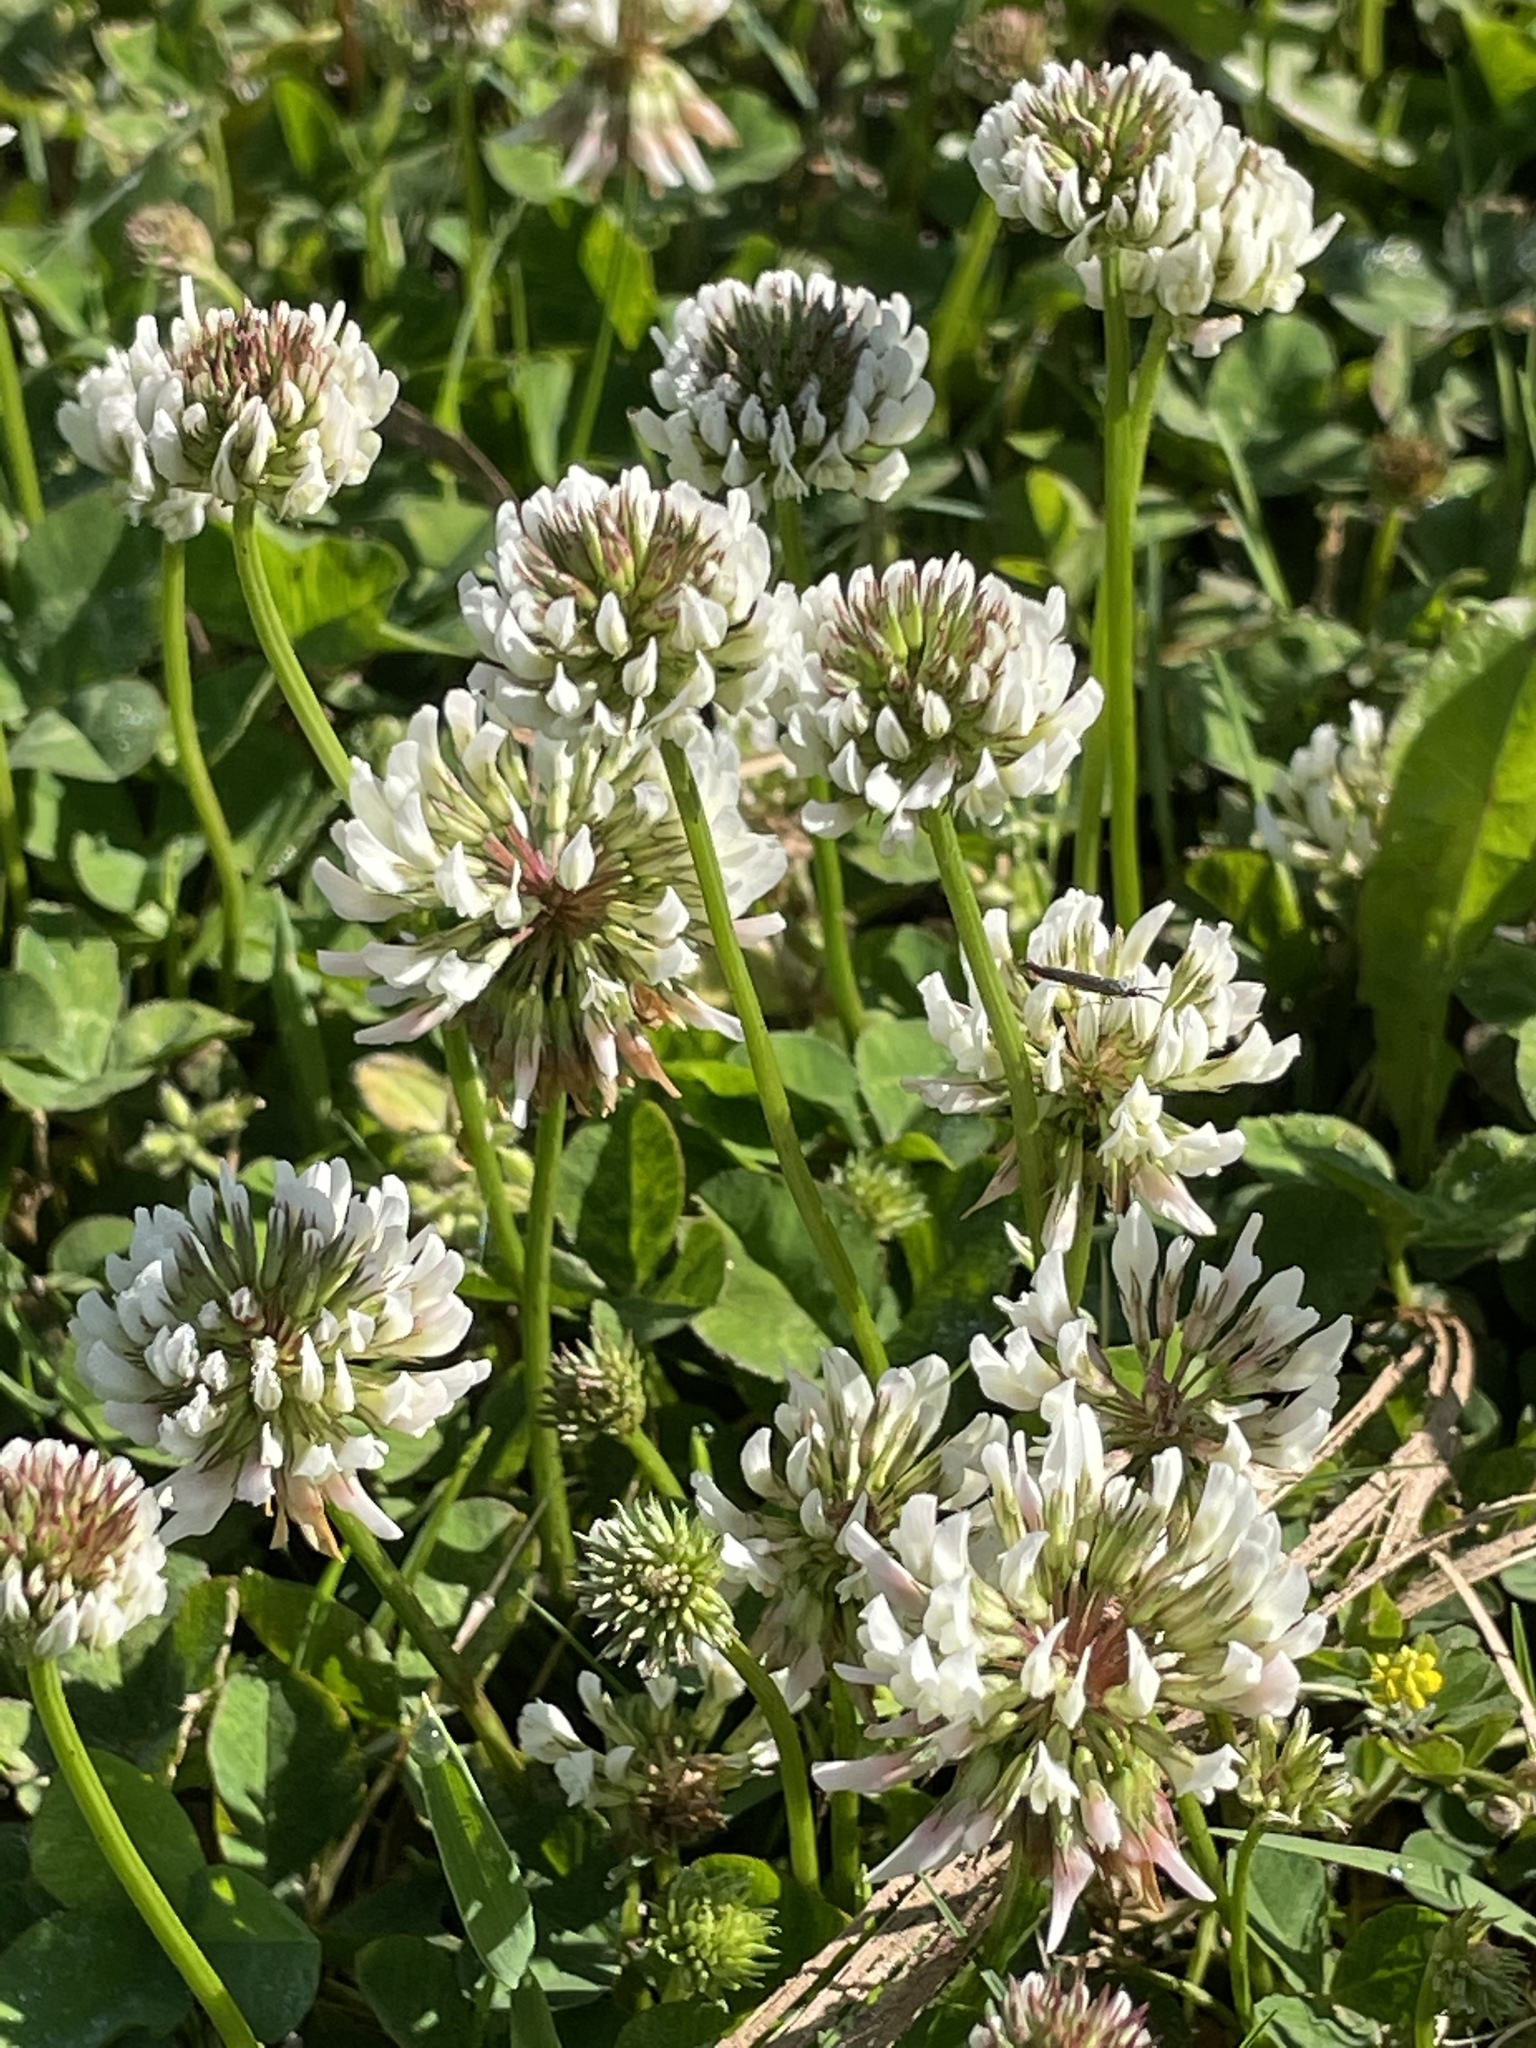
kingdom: Plantae
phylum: Tracheophyta
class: Magnoliopsida
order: Fabales
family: Fabaceae
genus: Trifolium
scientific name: Trifolium repens
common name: White clover
